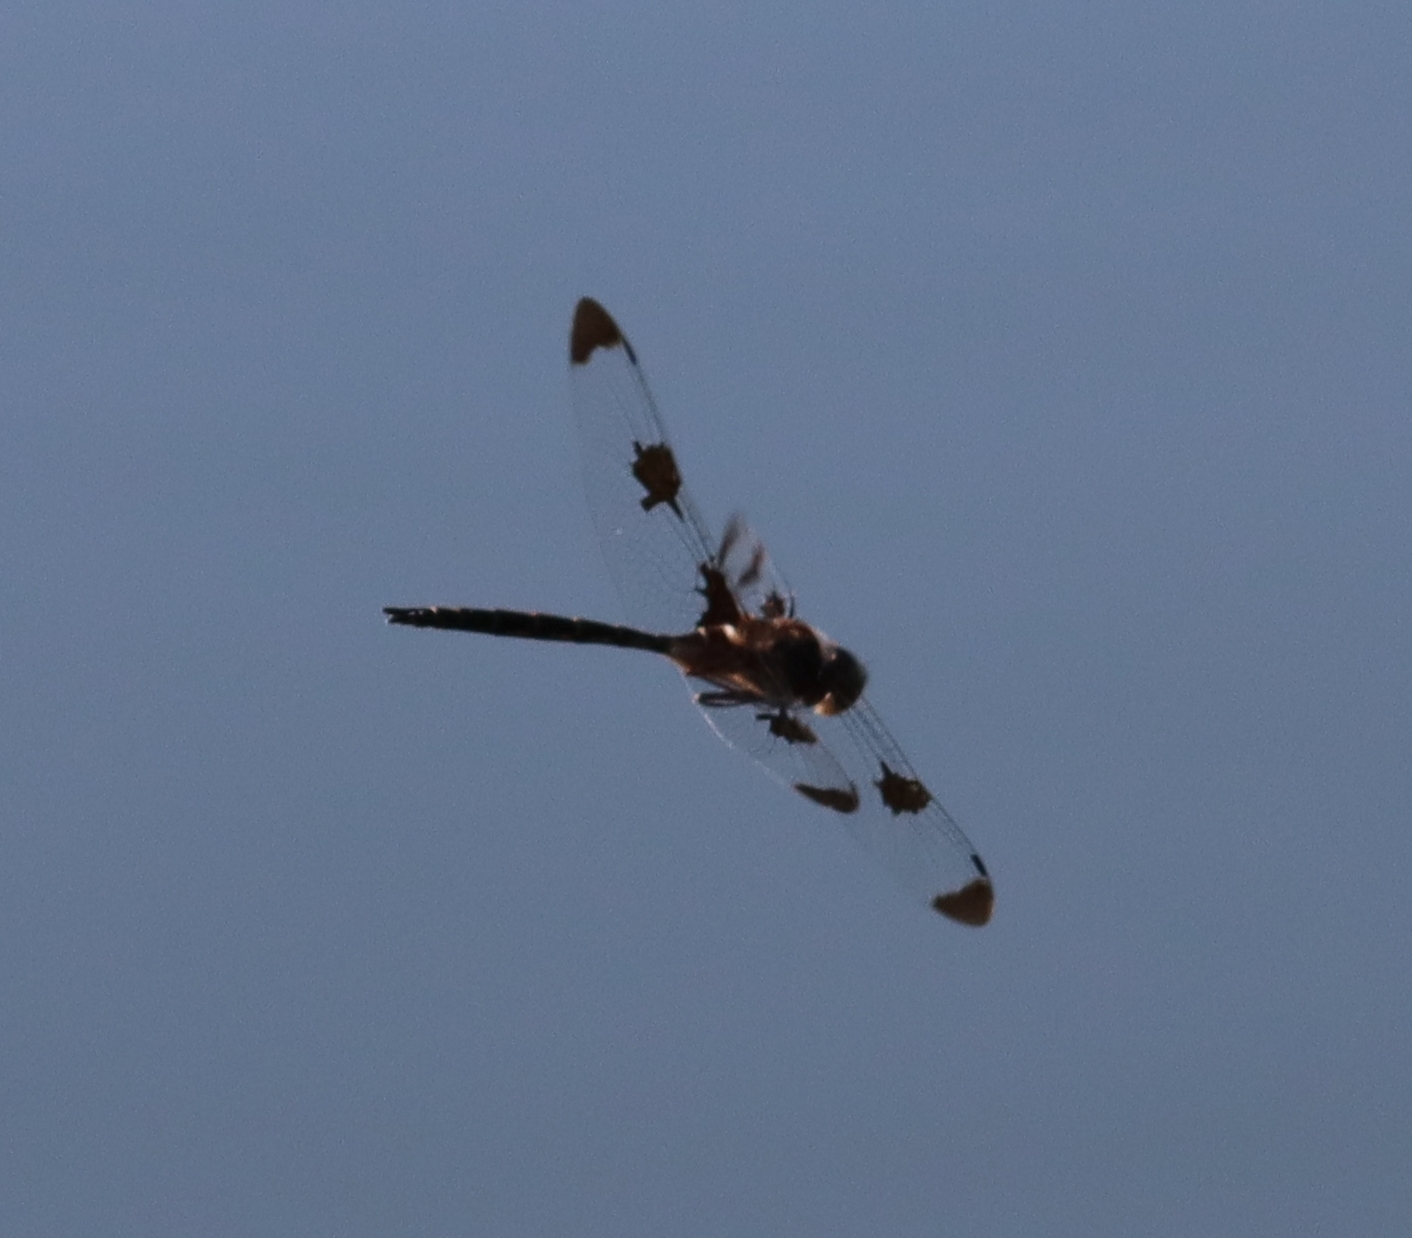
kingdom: Animalia
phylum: Arthropoda
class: Insecta
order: Odonata
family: Corduliidae
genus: Epitheca
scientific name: Epitheca princeps
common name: Prince baskettail
